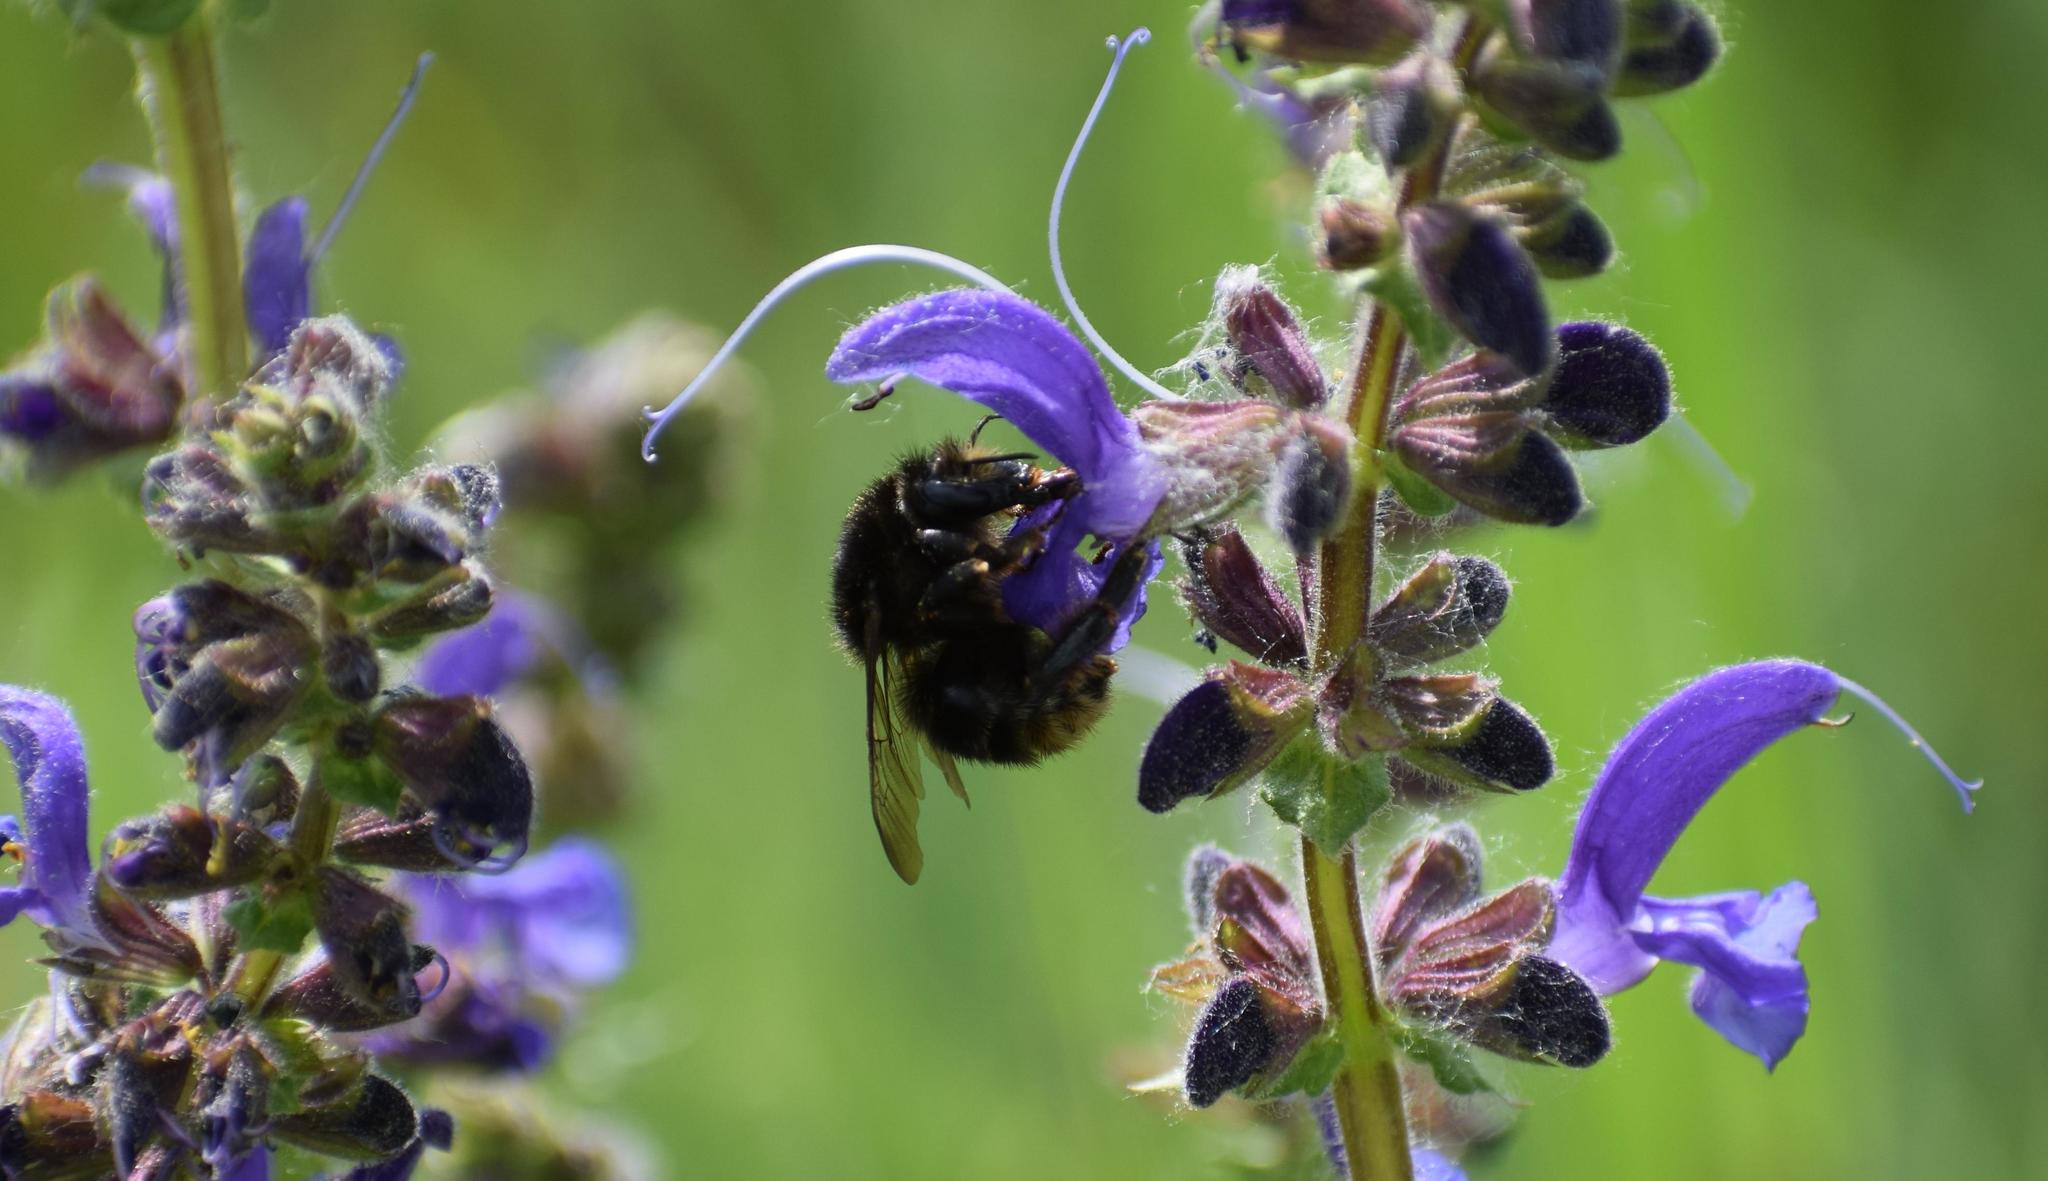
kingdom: Plantae
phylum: Tracheophyta
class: Magnoliopsida
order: Lamiales
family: Lamiaceae
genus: Salvia
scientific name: Salvia pratensis
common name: Meadow sage
